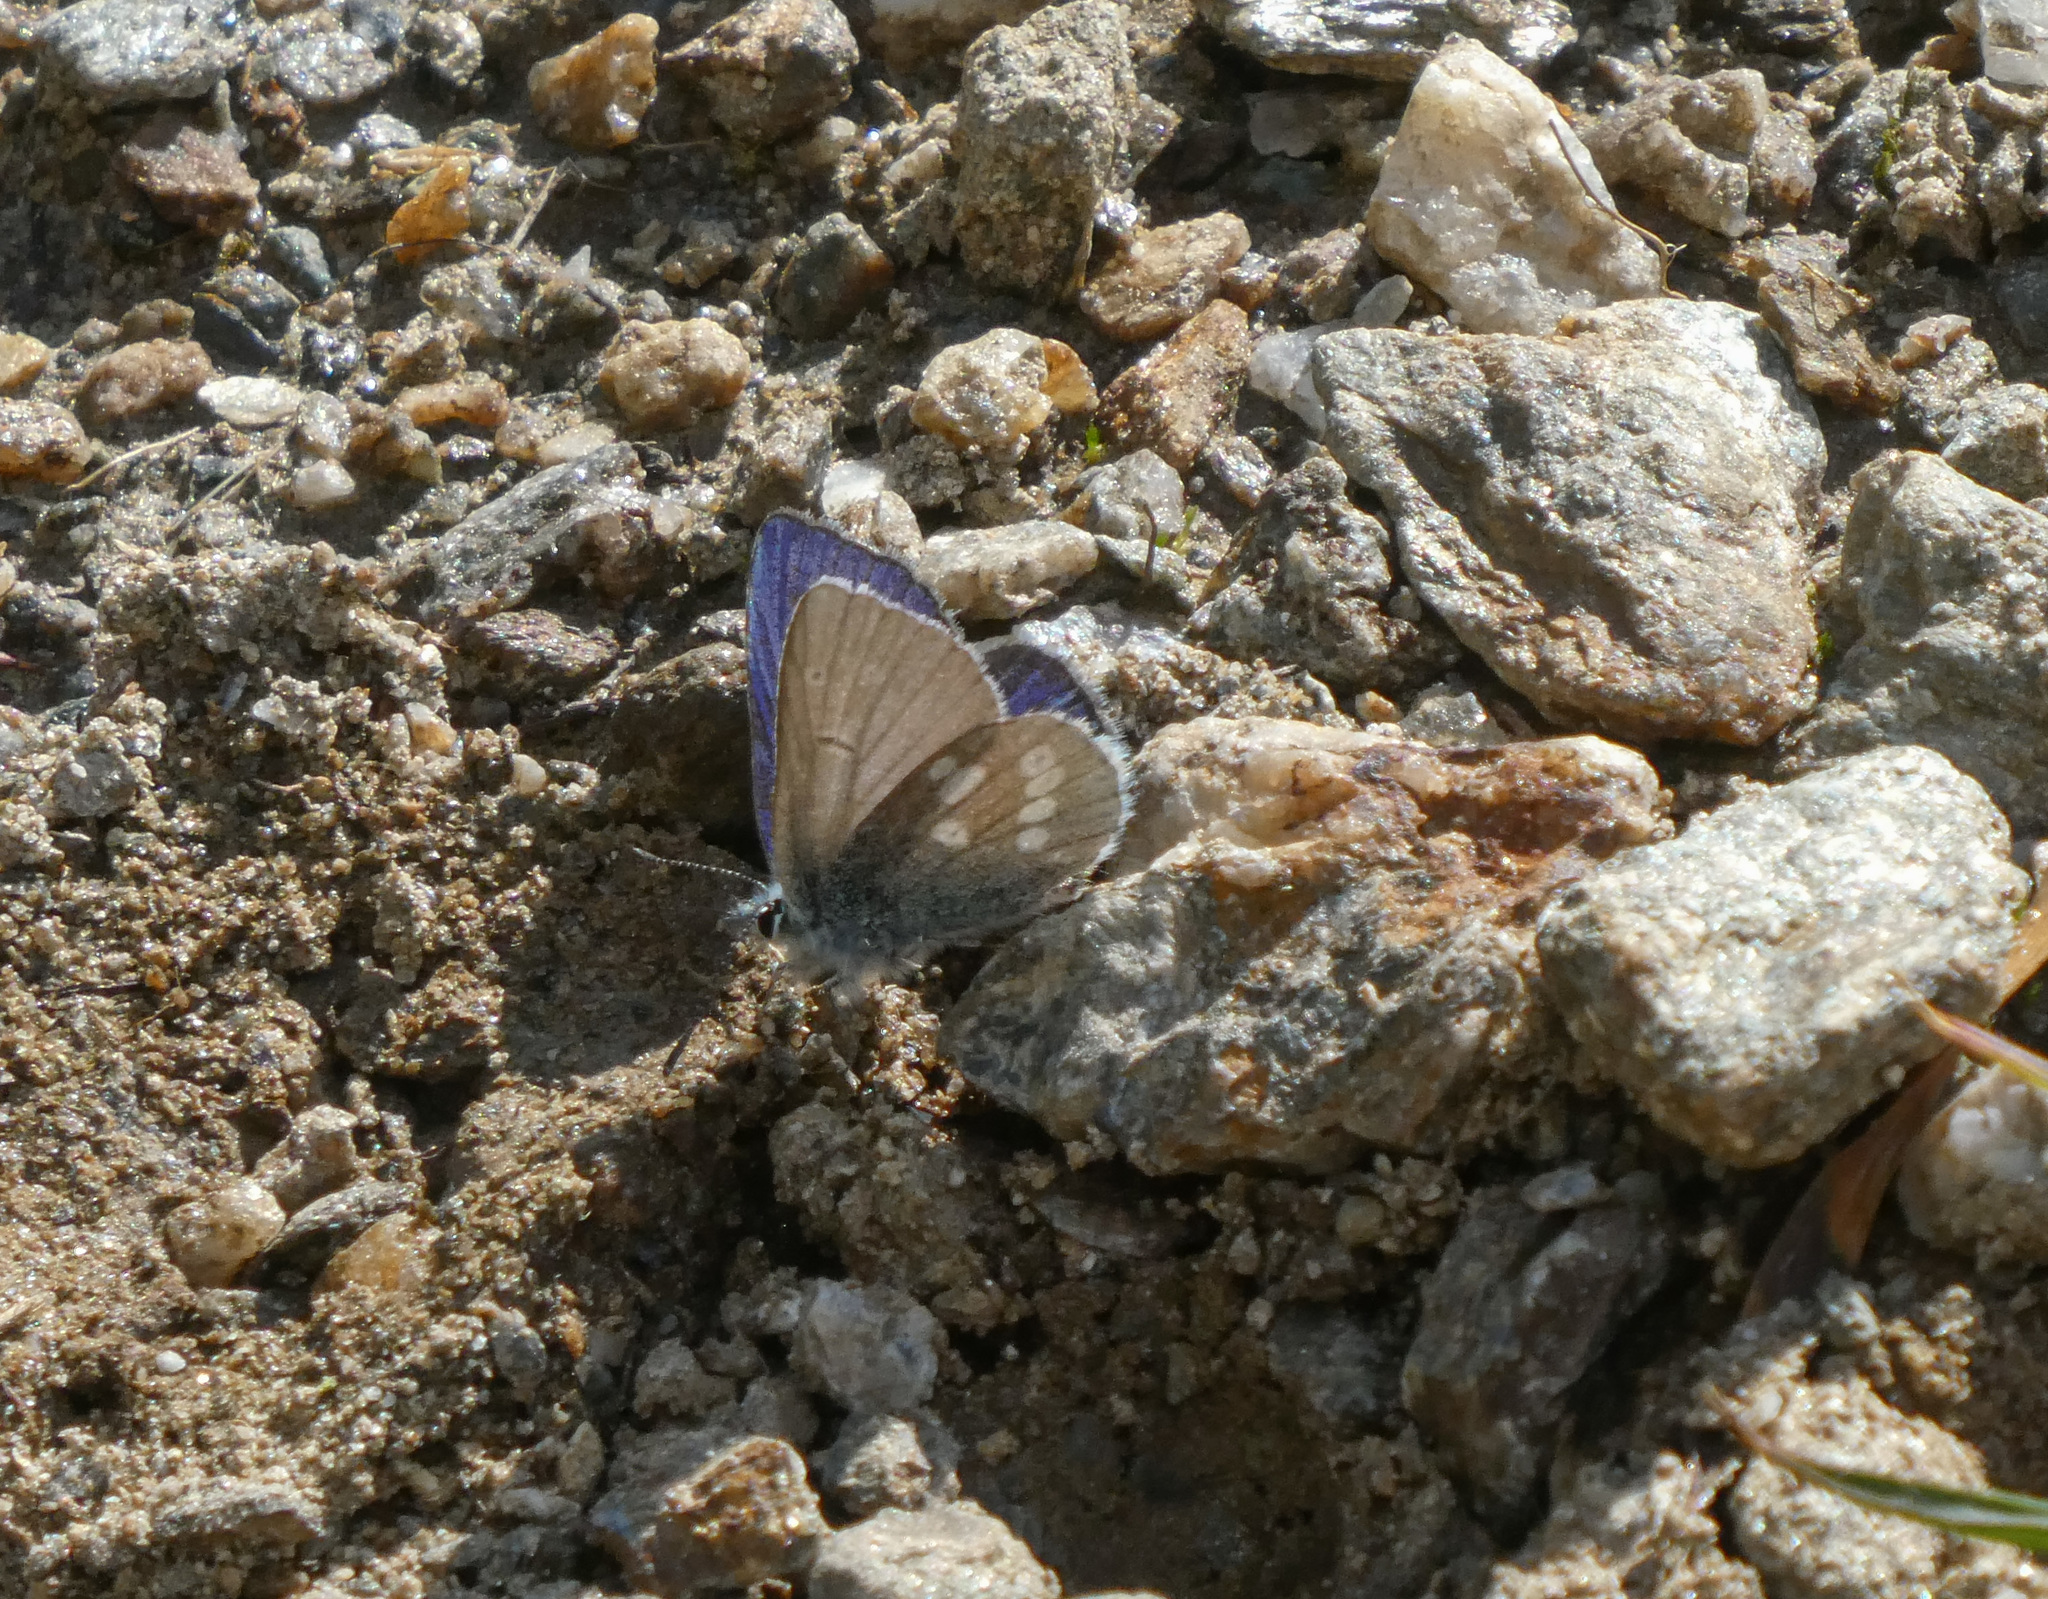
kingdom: Animalia
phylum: Arthropoda
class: Insecta
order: Lepidoptera
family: Lycaenidae
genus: Albulina
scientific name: Albulina orbitulus
